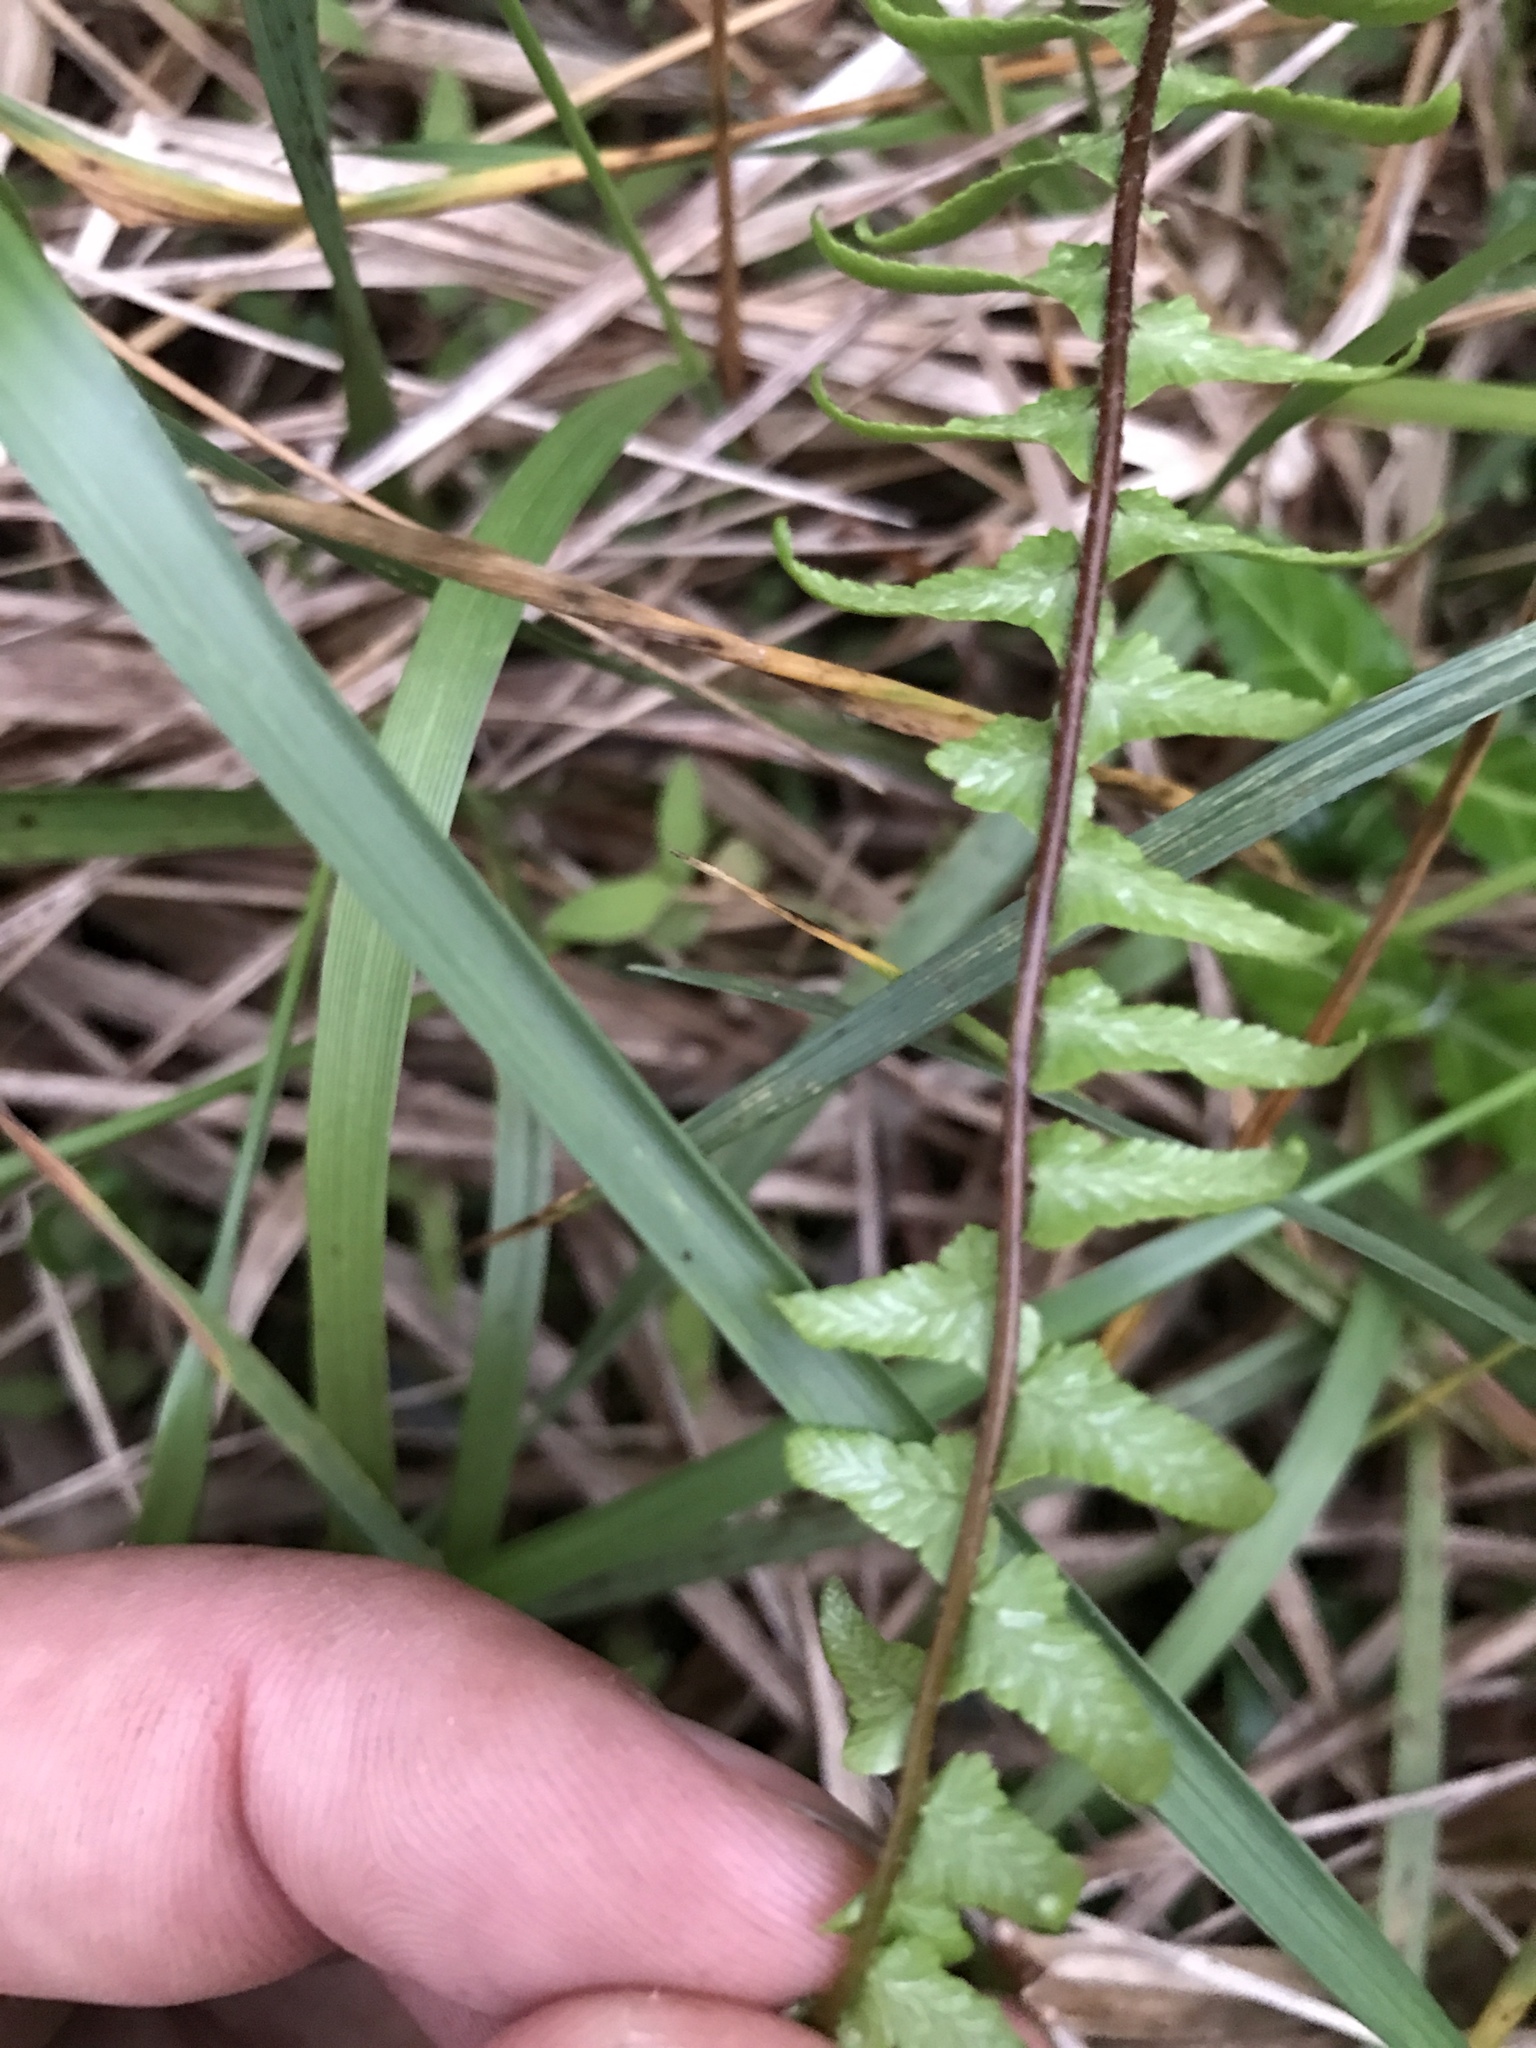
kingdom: Plantae
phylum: Tracheophyta
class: Polypodiopsida
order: Polypodiales
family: Aspleniaceae
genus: Asplenium
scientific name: Asplenium platyneuron
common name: Ebony spleenwort
